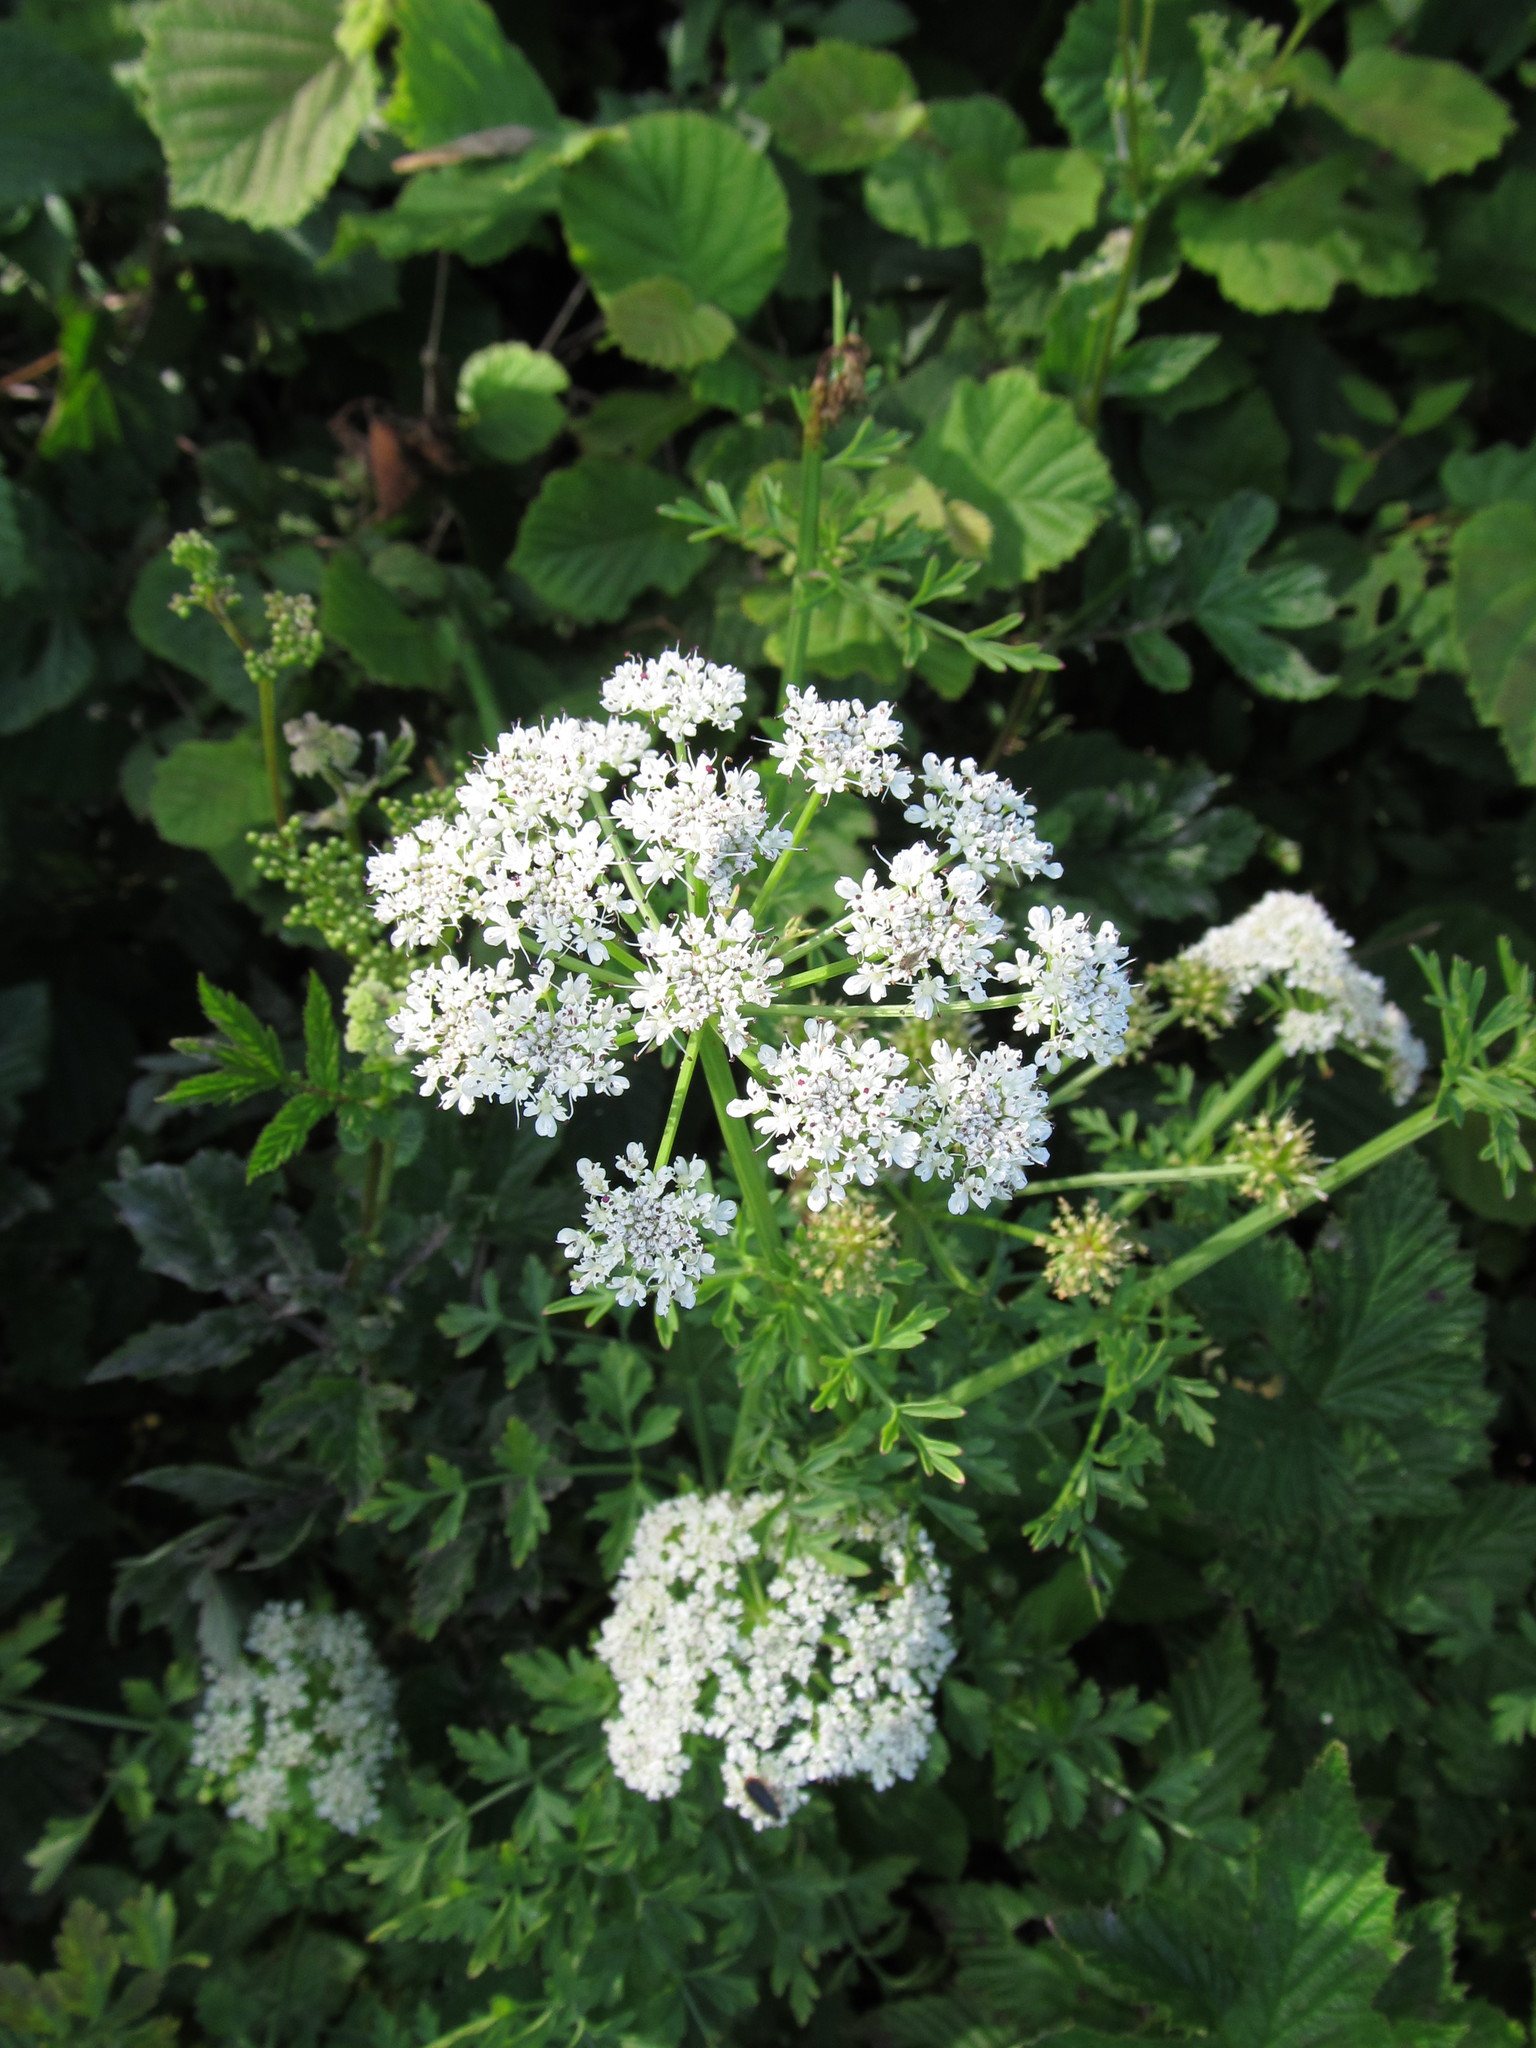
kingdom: Plantae
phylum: Tracheophyta
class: Magnoliopsida
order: Apiales
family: Apiaceae
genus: Oenanthe
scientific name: Oenanthe crocata
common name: Hemlock water-dropwort
